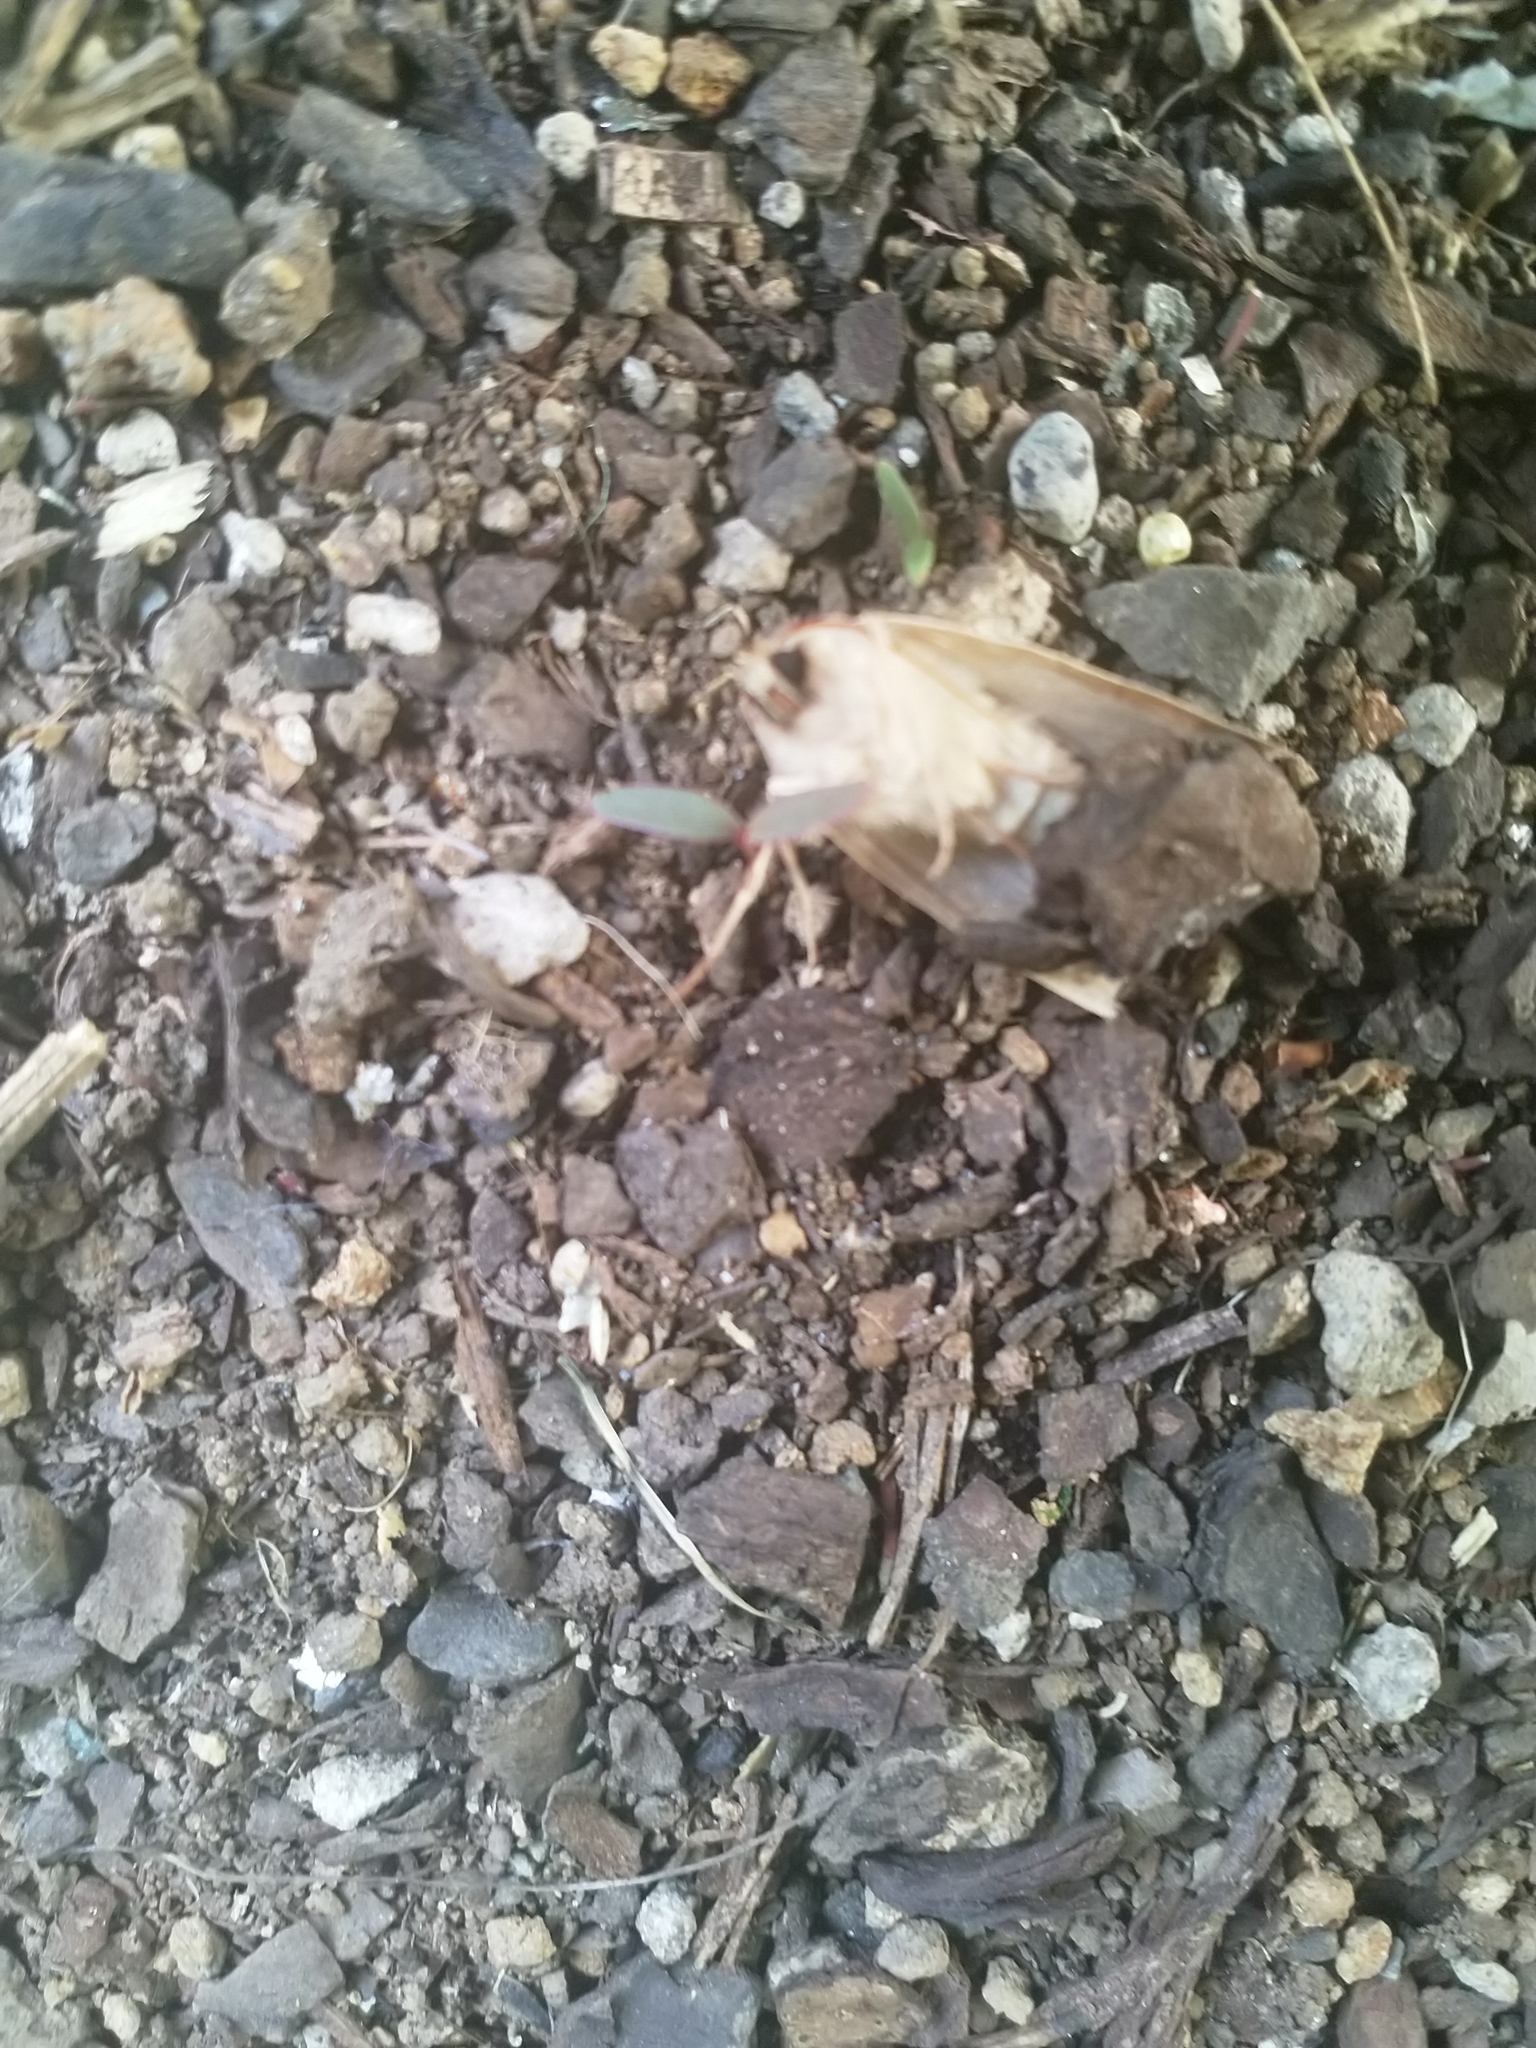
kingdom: Animalia
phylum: Arthropoda
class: Insecta
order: Lepidoptera
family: Geometridae
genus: Declana
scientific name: Declana leptomera
